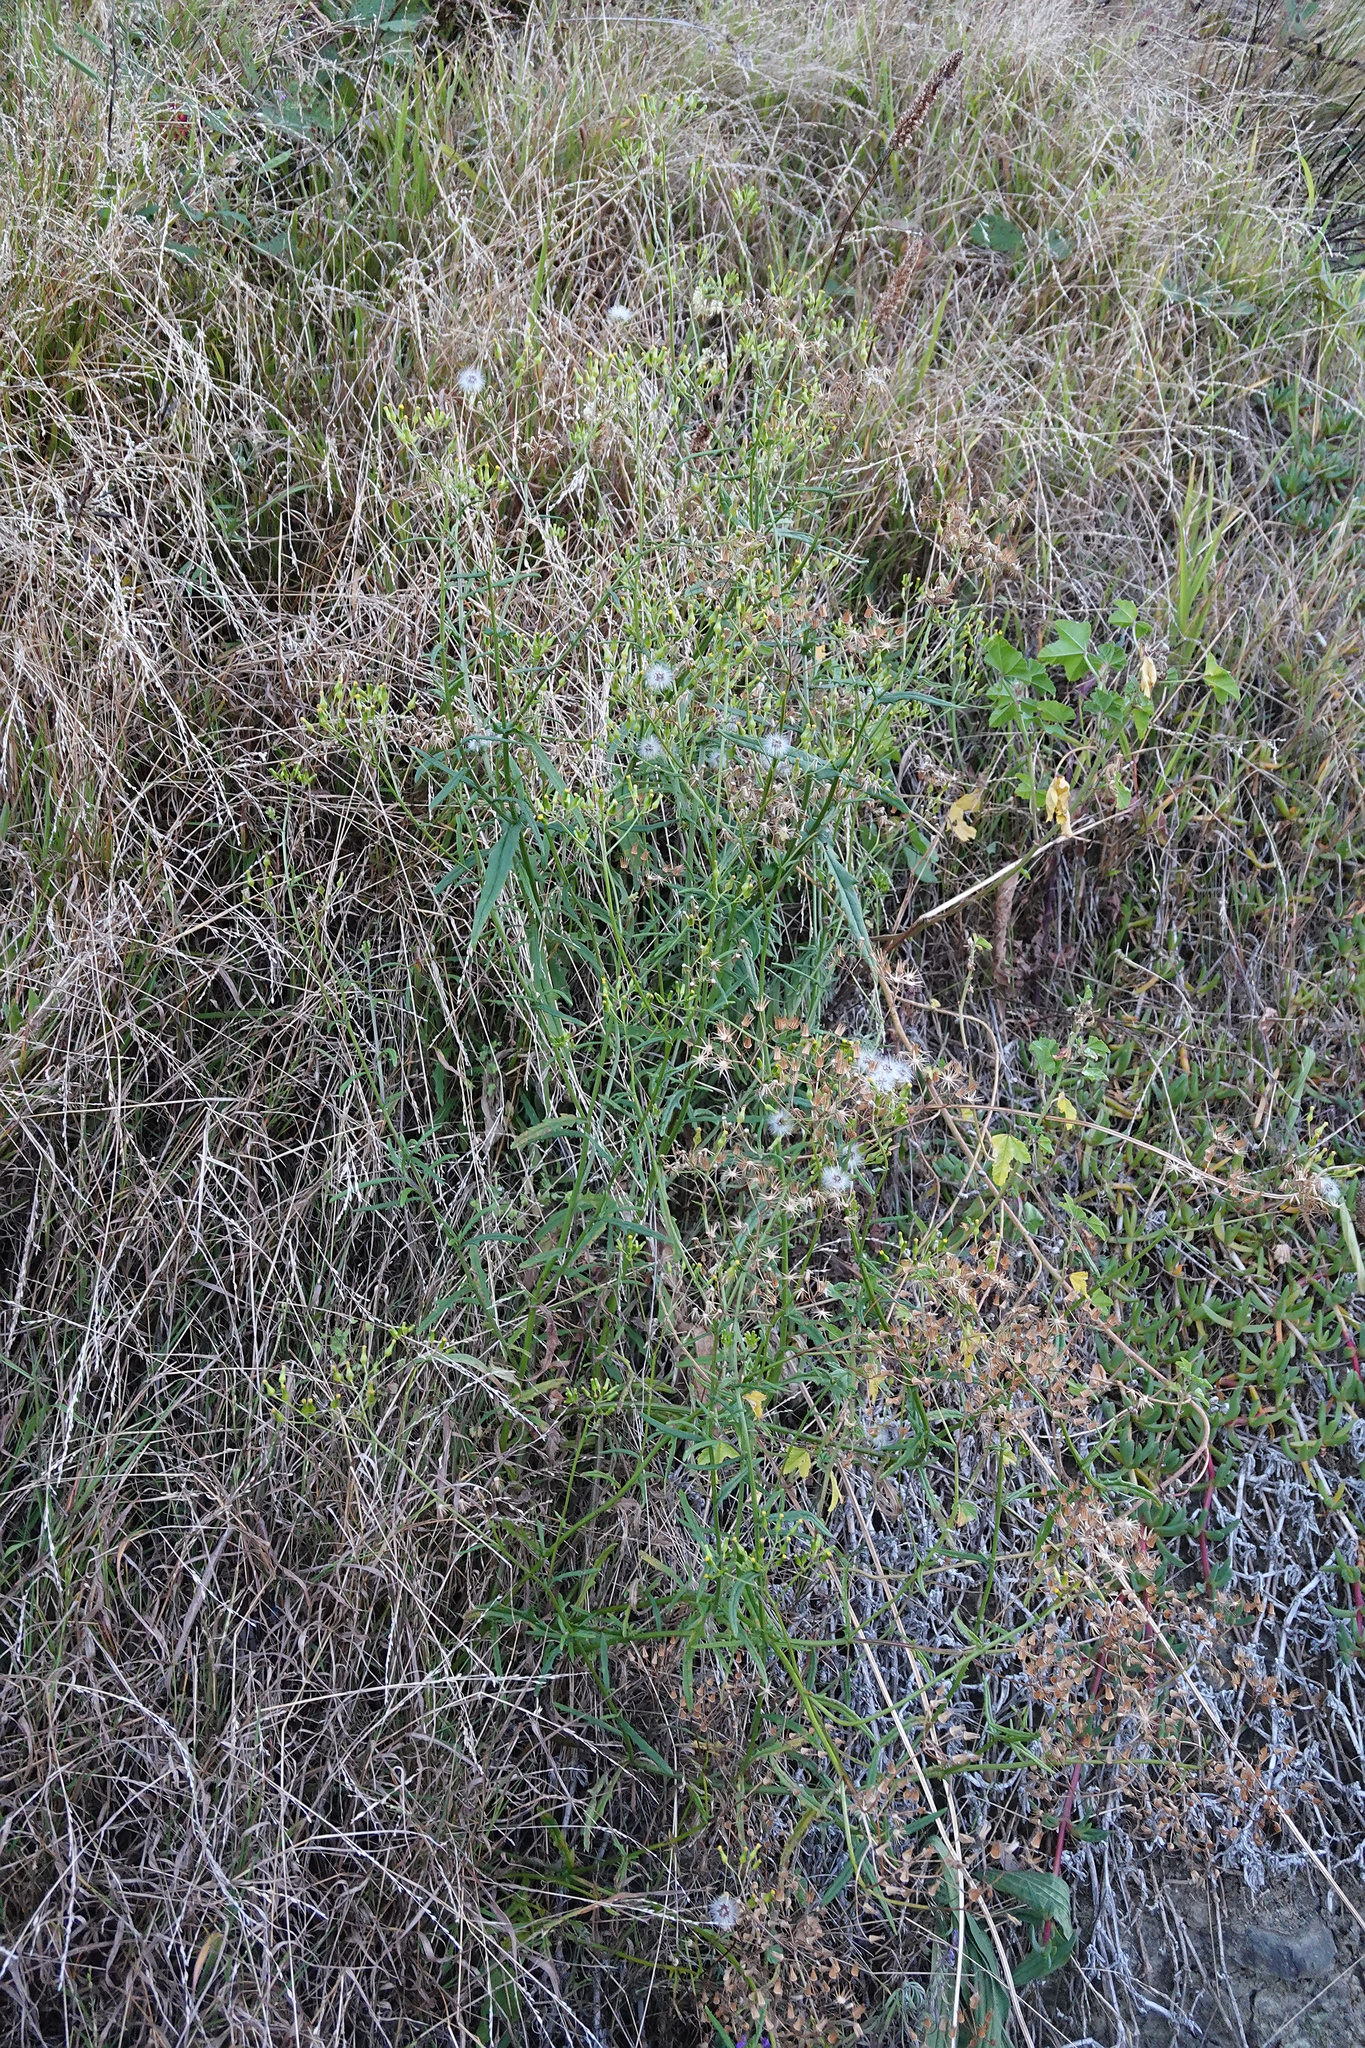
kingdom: Plantae
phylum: Tracheophyta
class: Magnoliopsida
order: Asterales
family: Asteraceae
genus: Senecio
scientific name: Senecio hispidulus
